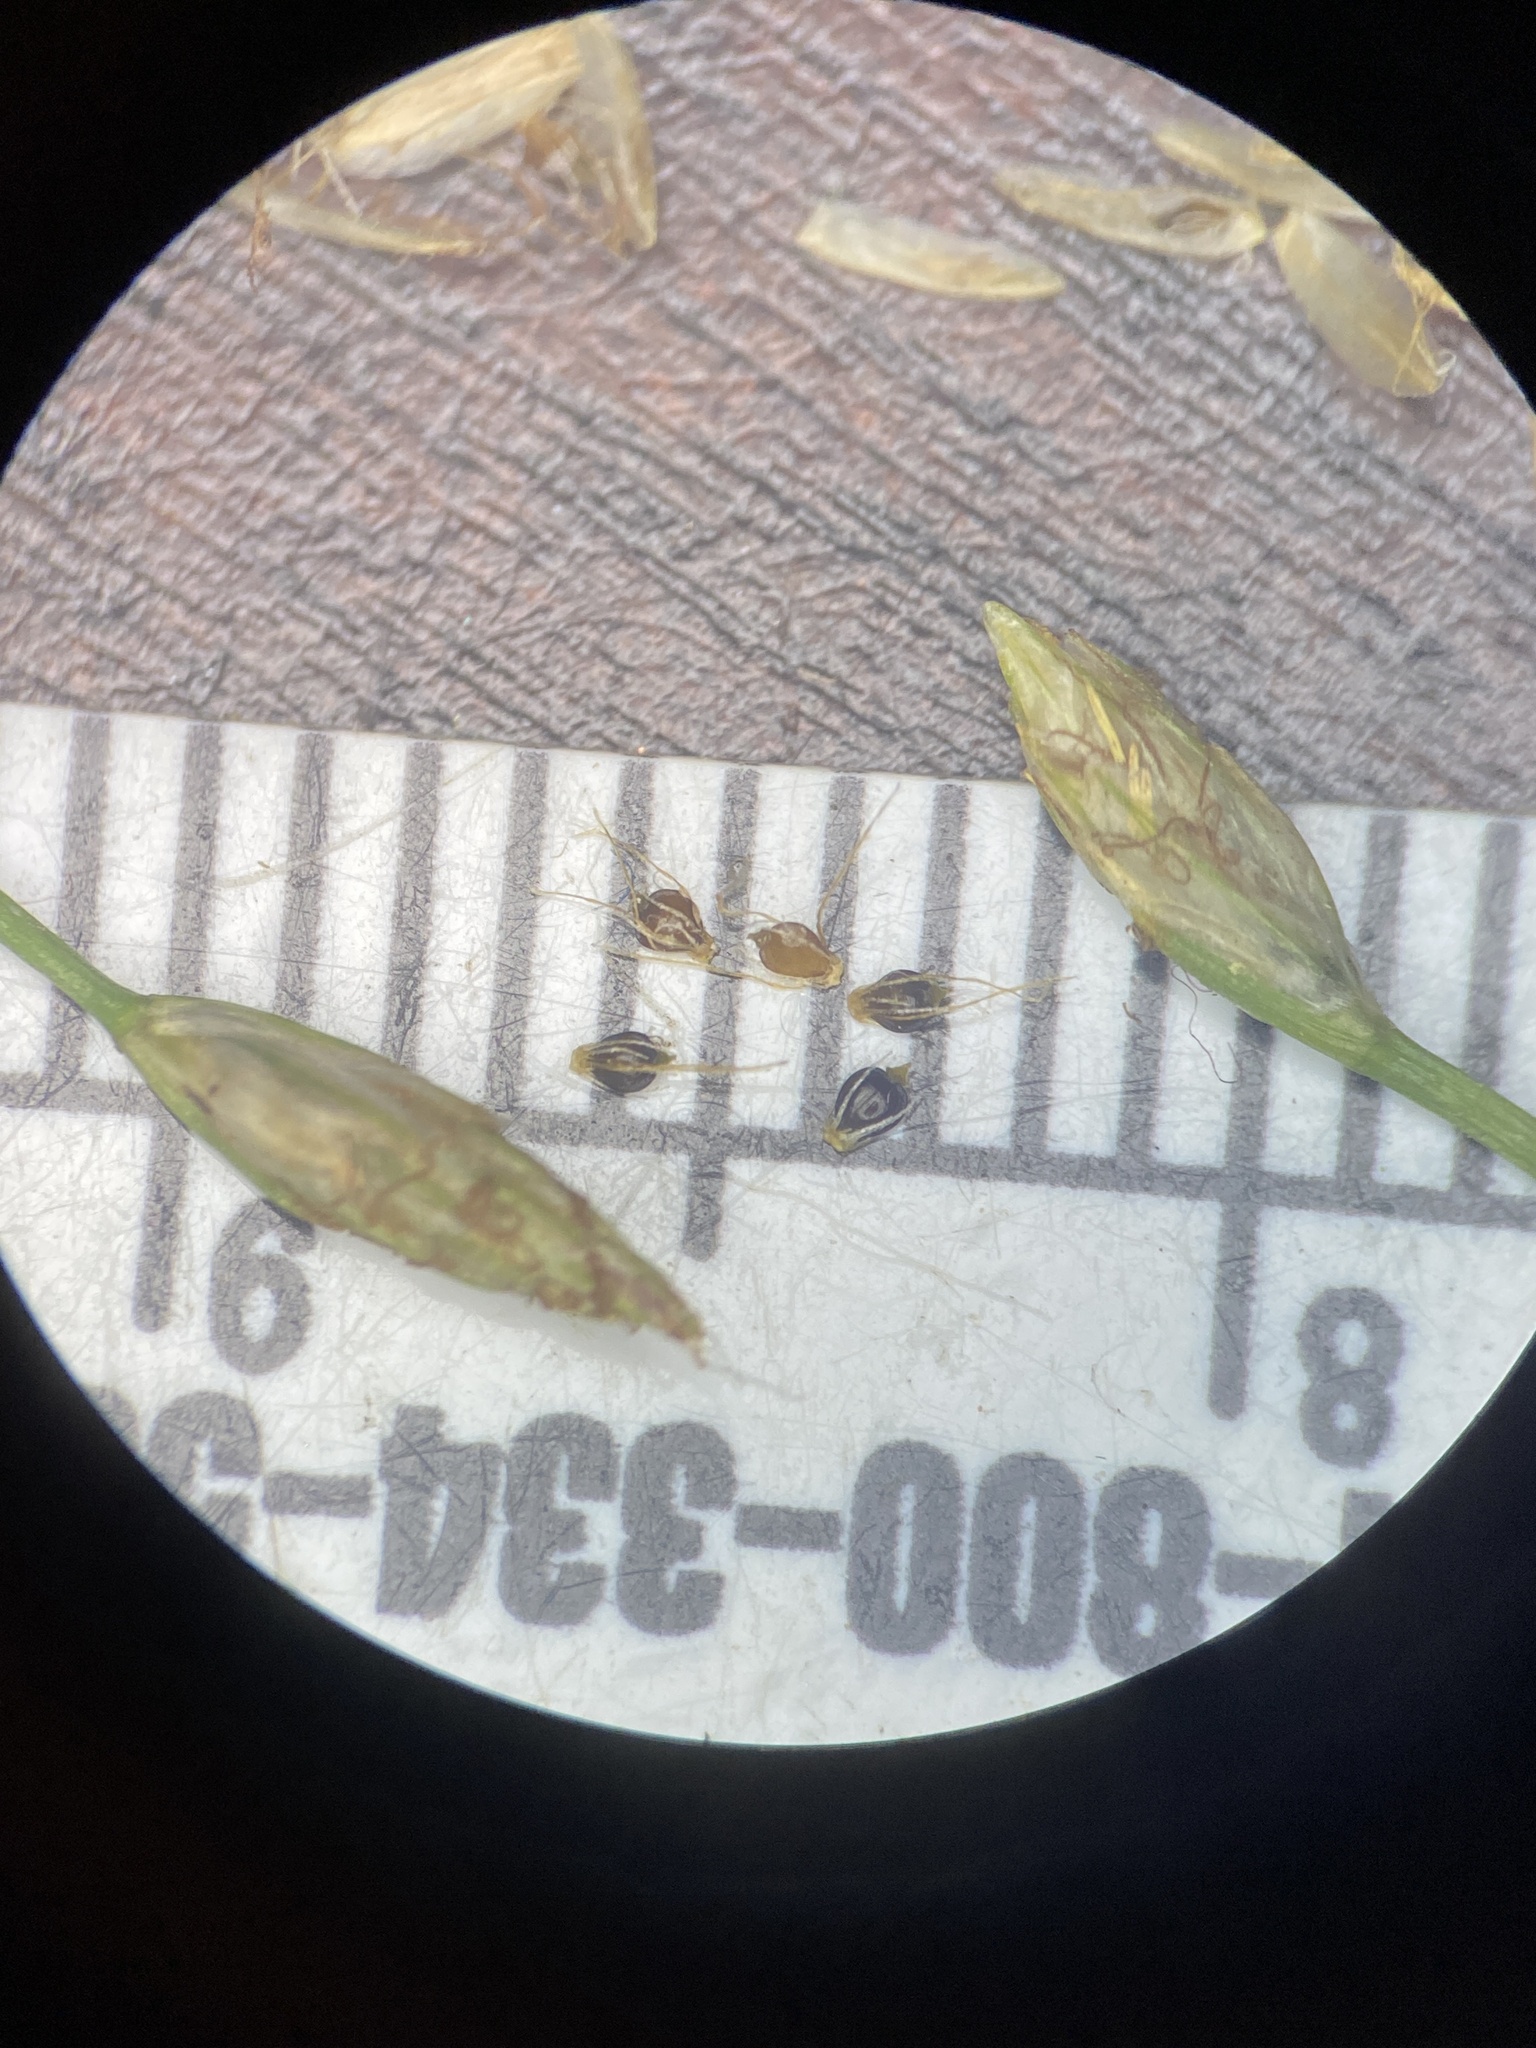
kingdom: Plantae
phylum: Tracheophyta
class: Liliopsida
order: Poales
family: Cyperaceae
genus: Eleocharis
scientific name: Eleocharis flavescens
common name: Yellow spikerush
